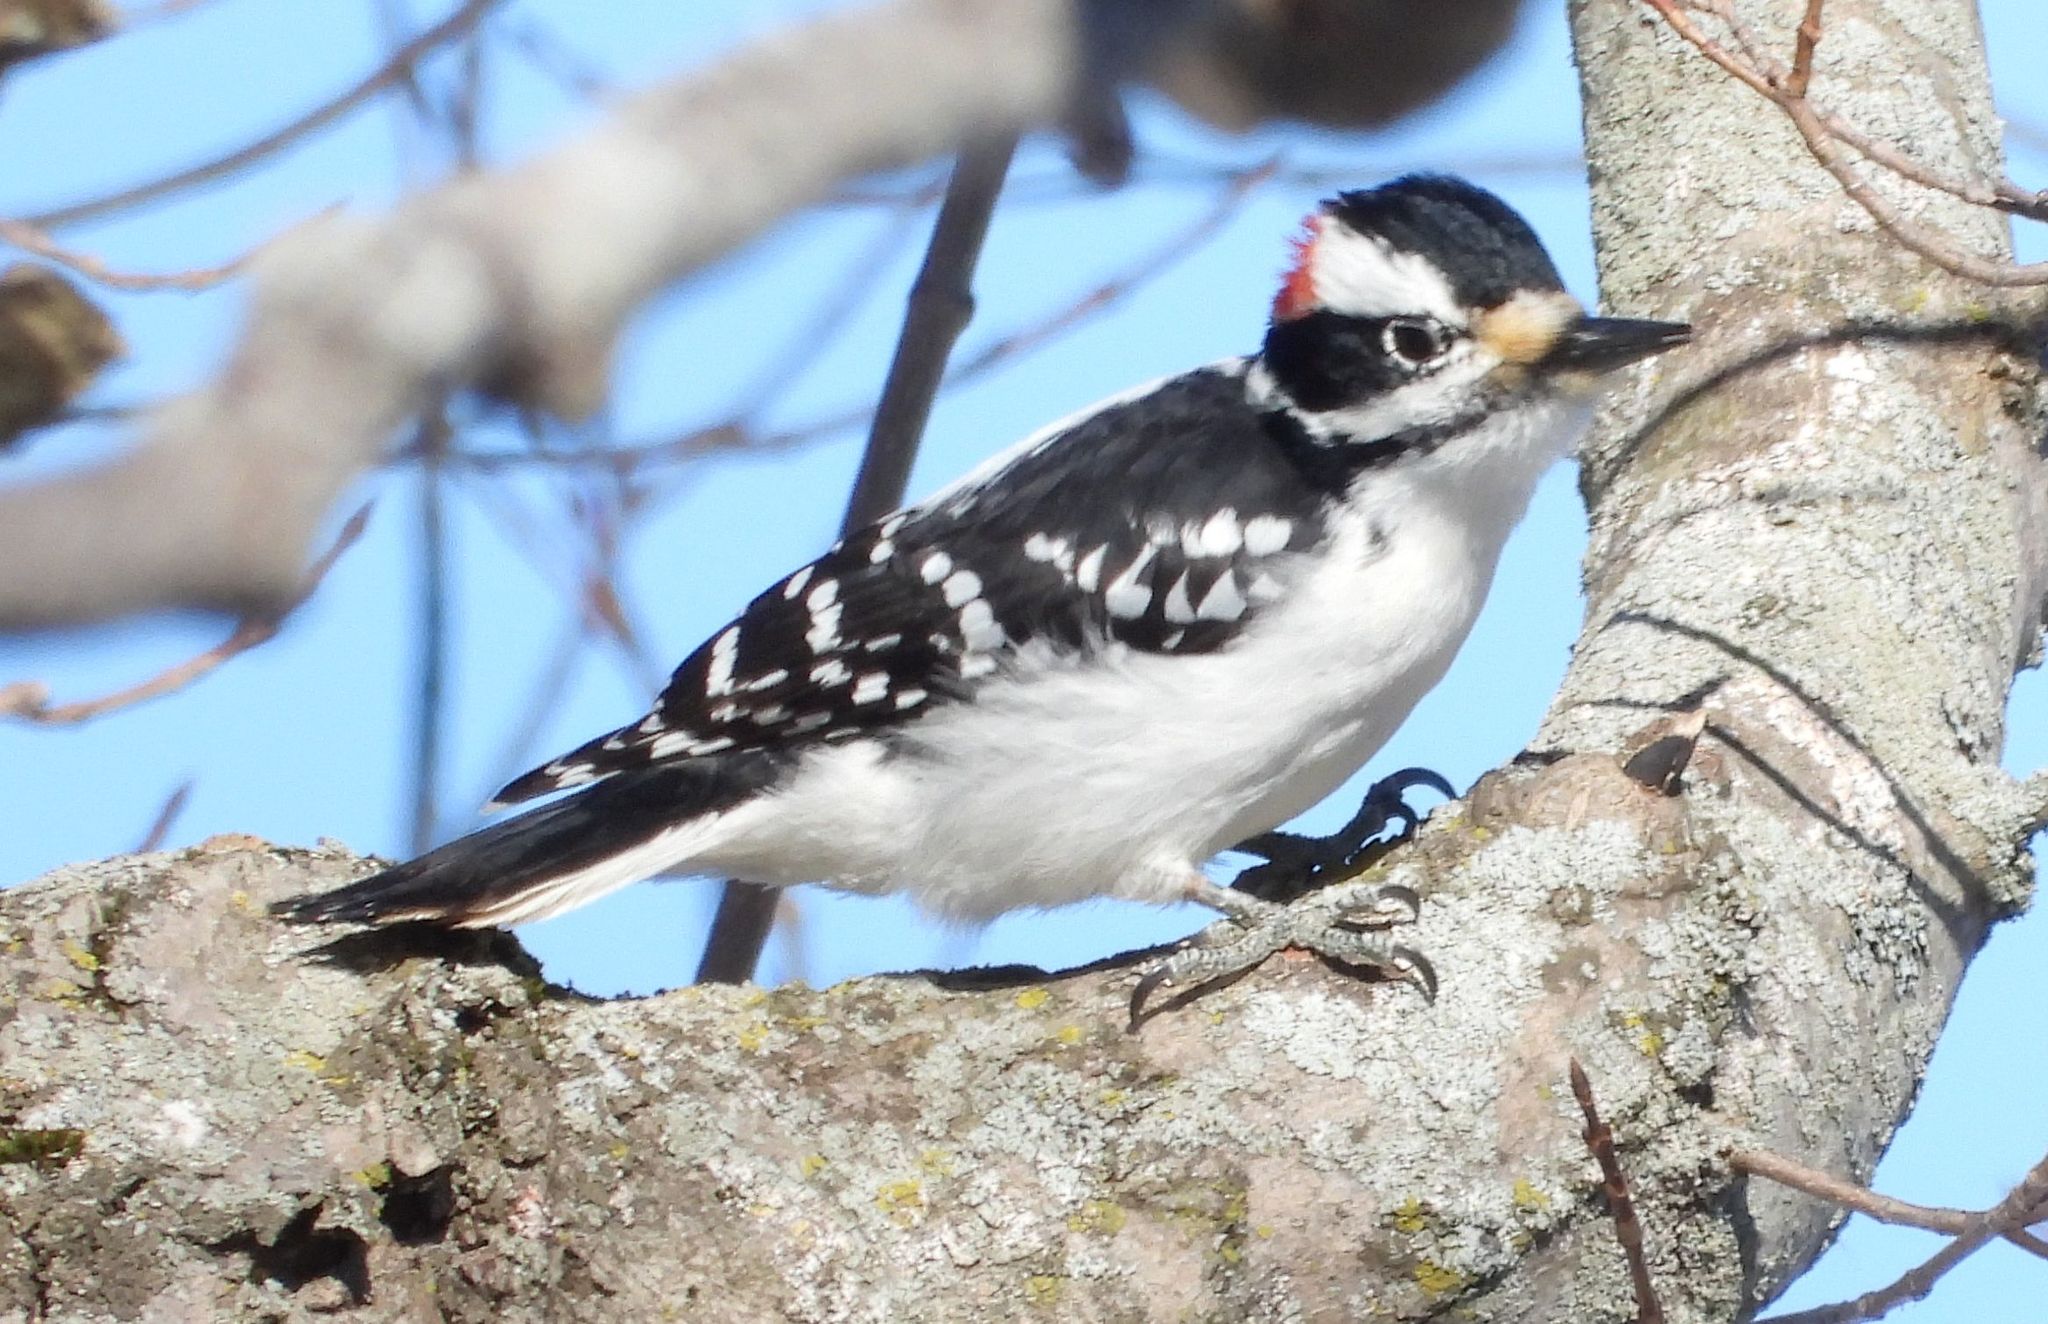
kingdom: Animalia
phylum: Chordata
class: Aves
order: Piciformes
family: Picidae
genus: Leuconotopicus
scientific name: Leuconotopicus villosus
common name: Hairy woodpecker
